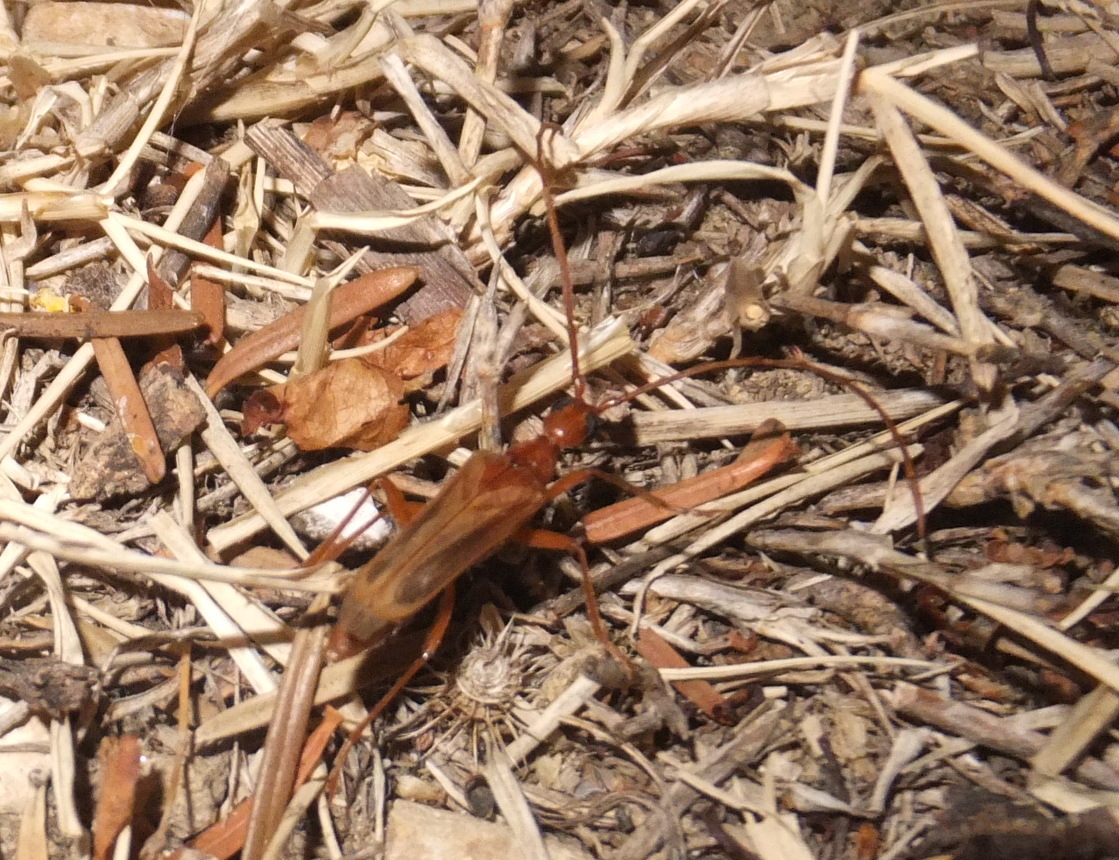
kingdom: Animalia
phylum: Arthropoda
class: Insecta
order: Coleoptera
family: Cerambycidae
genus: Vesperus
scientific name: Vesperus luridus
